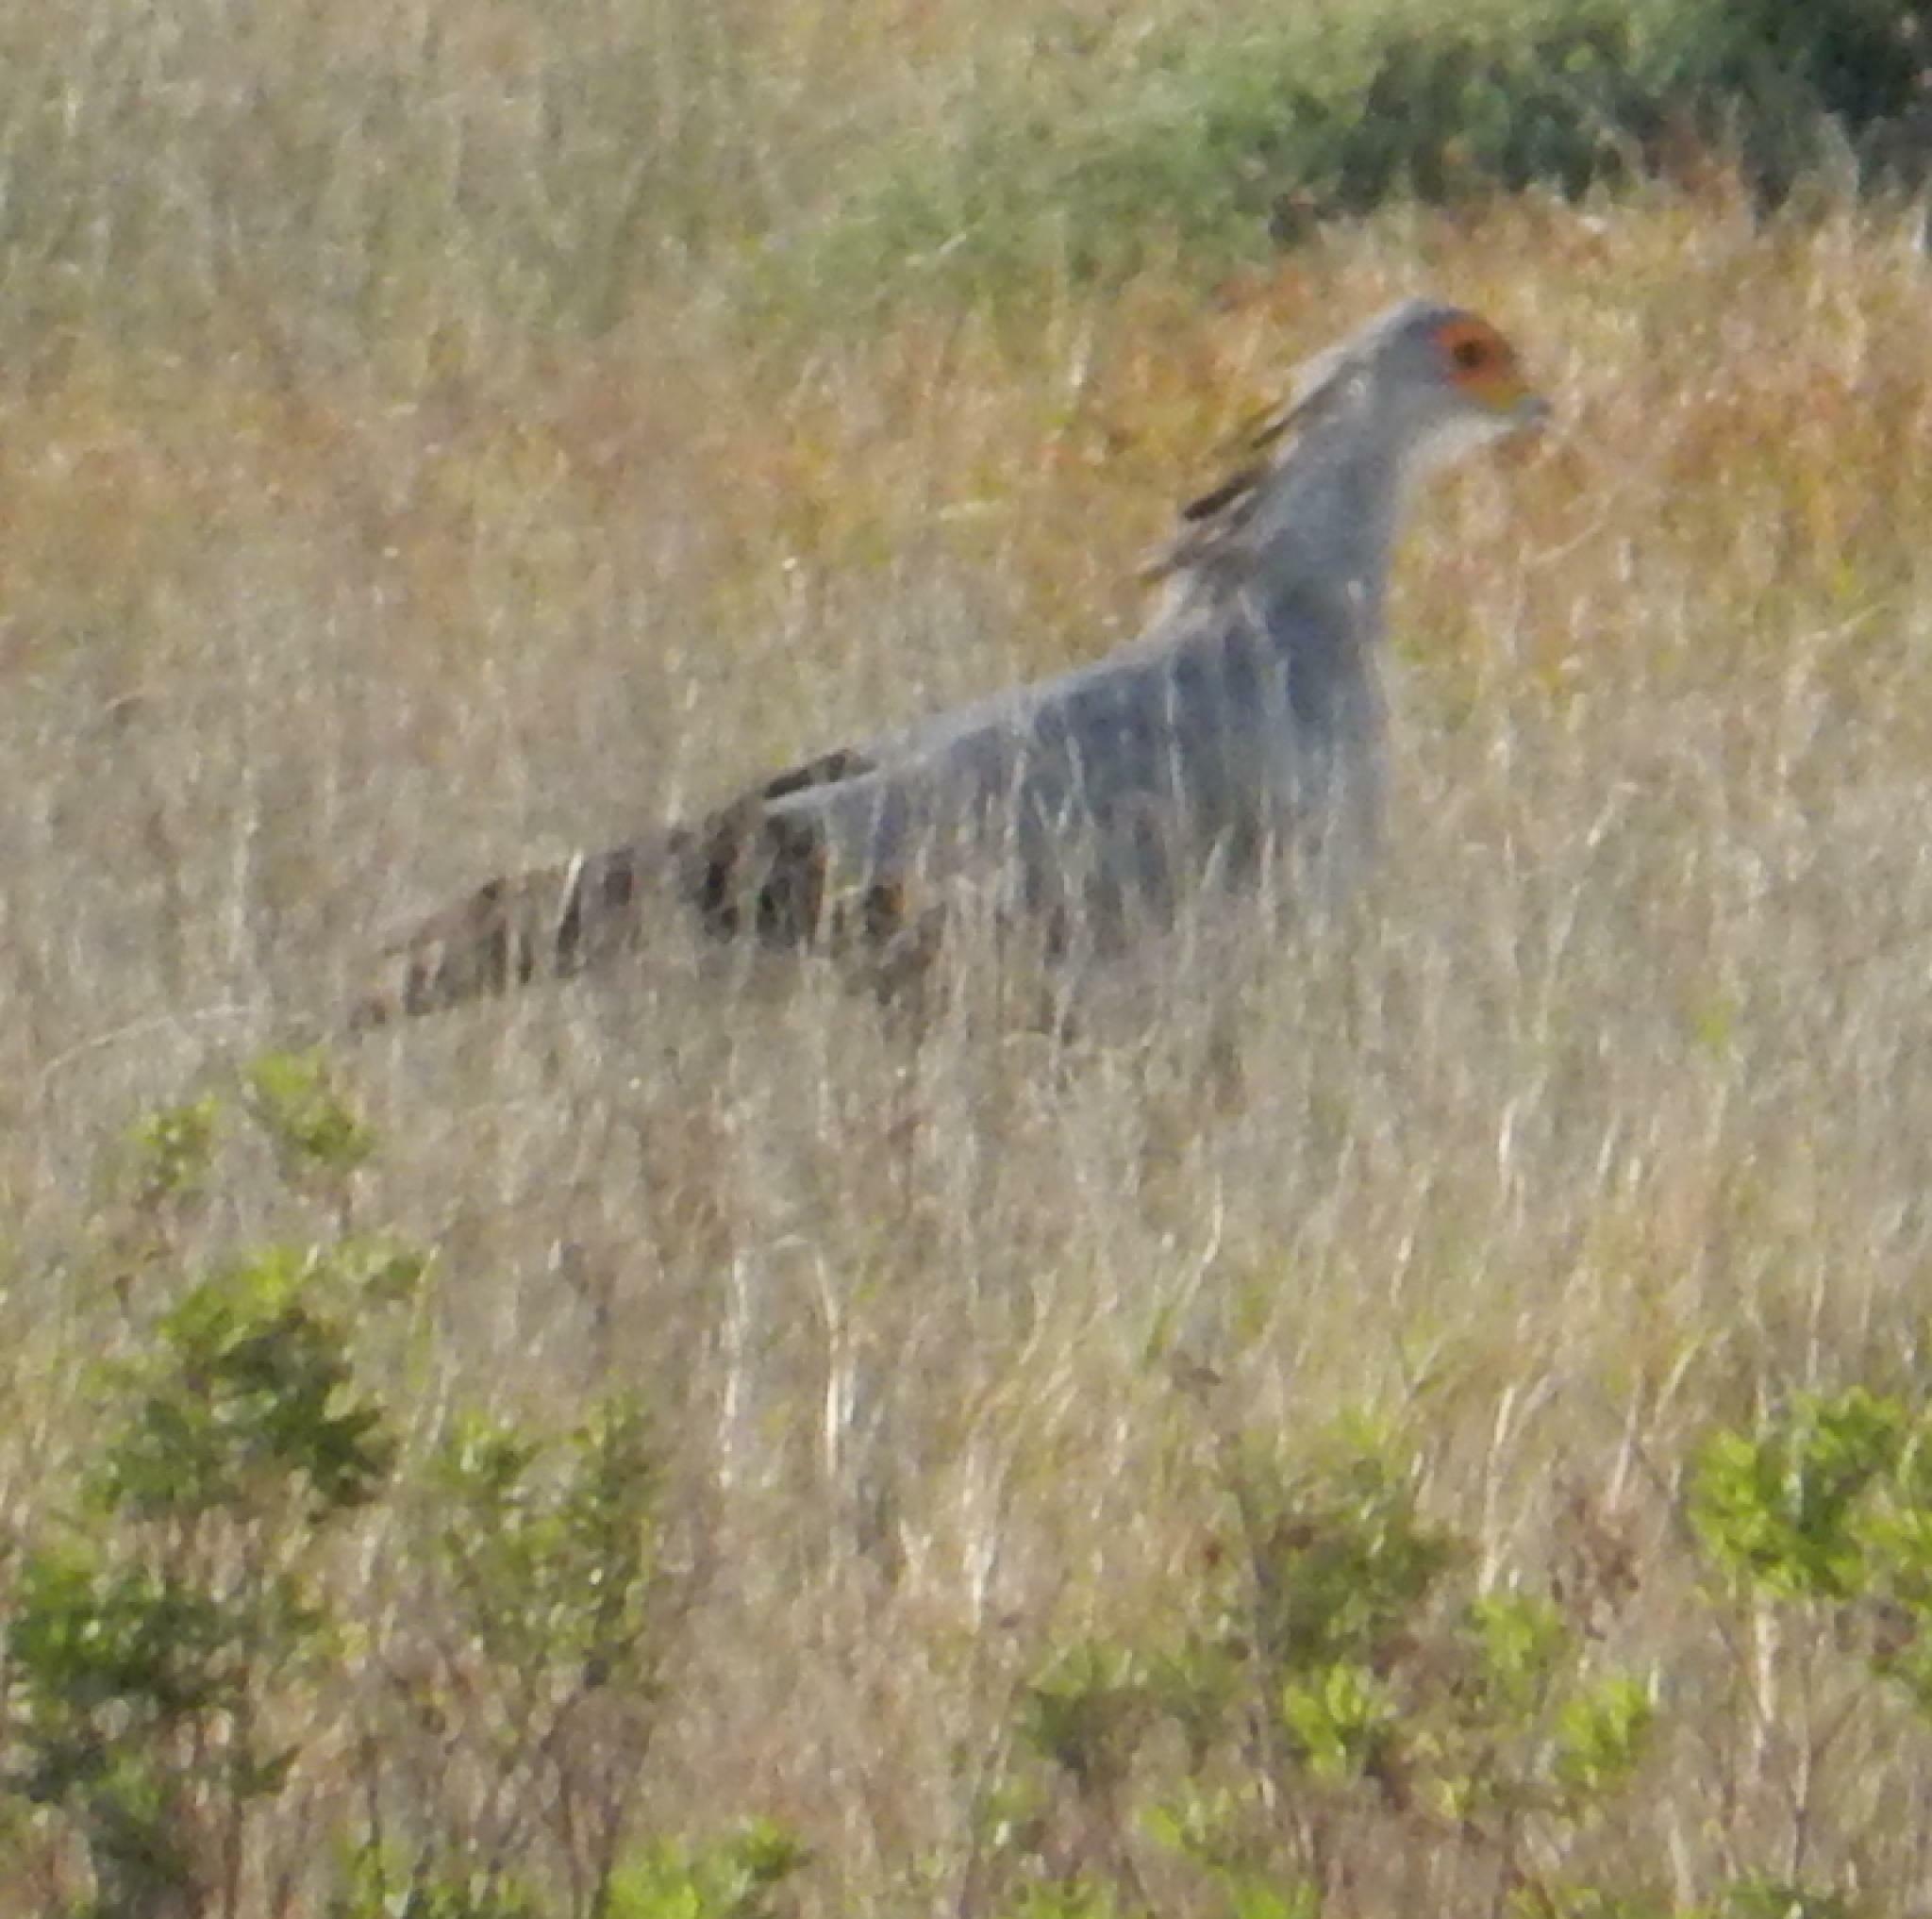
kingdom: Animalia
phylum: Chordata
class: Aves
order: Accipitriformes
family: Sagittariidae
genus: Sagittarius
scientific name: Sagittarius serpentarius
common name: Secretarybird
